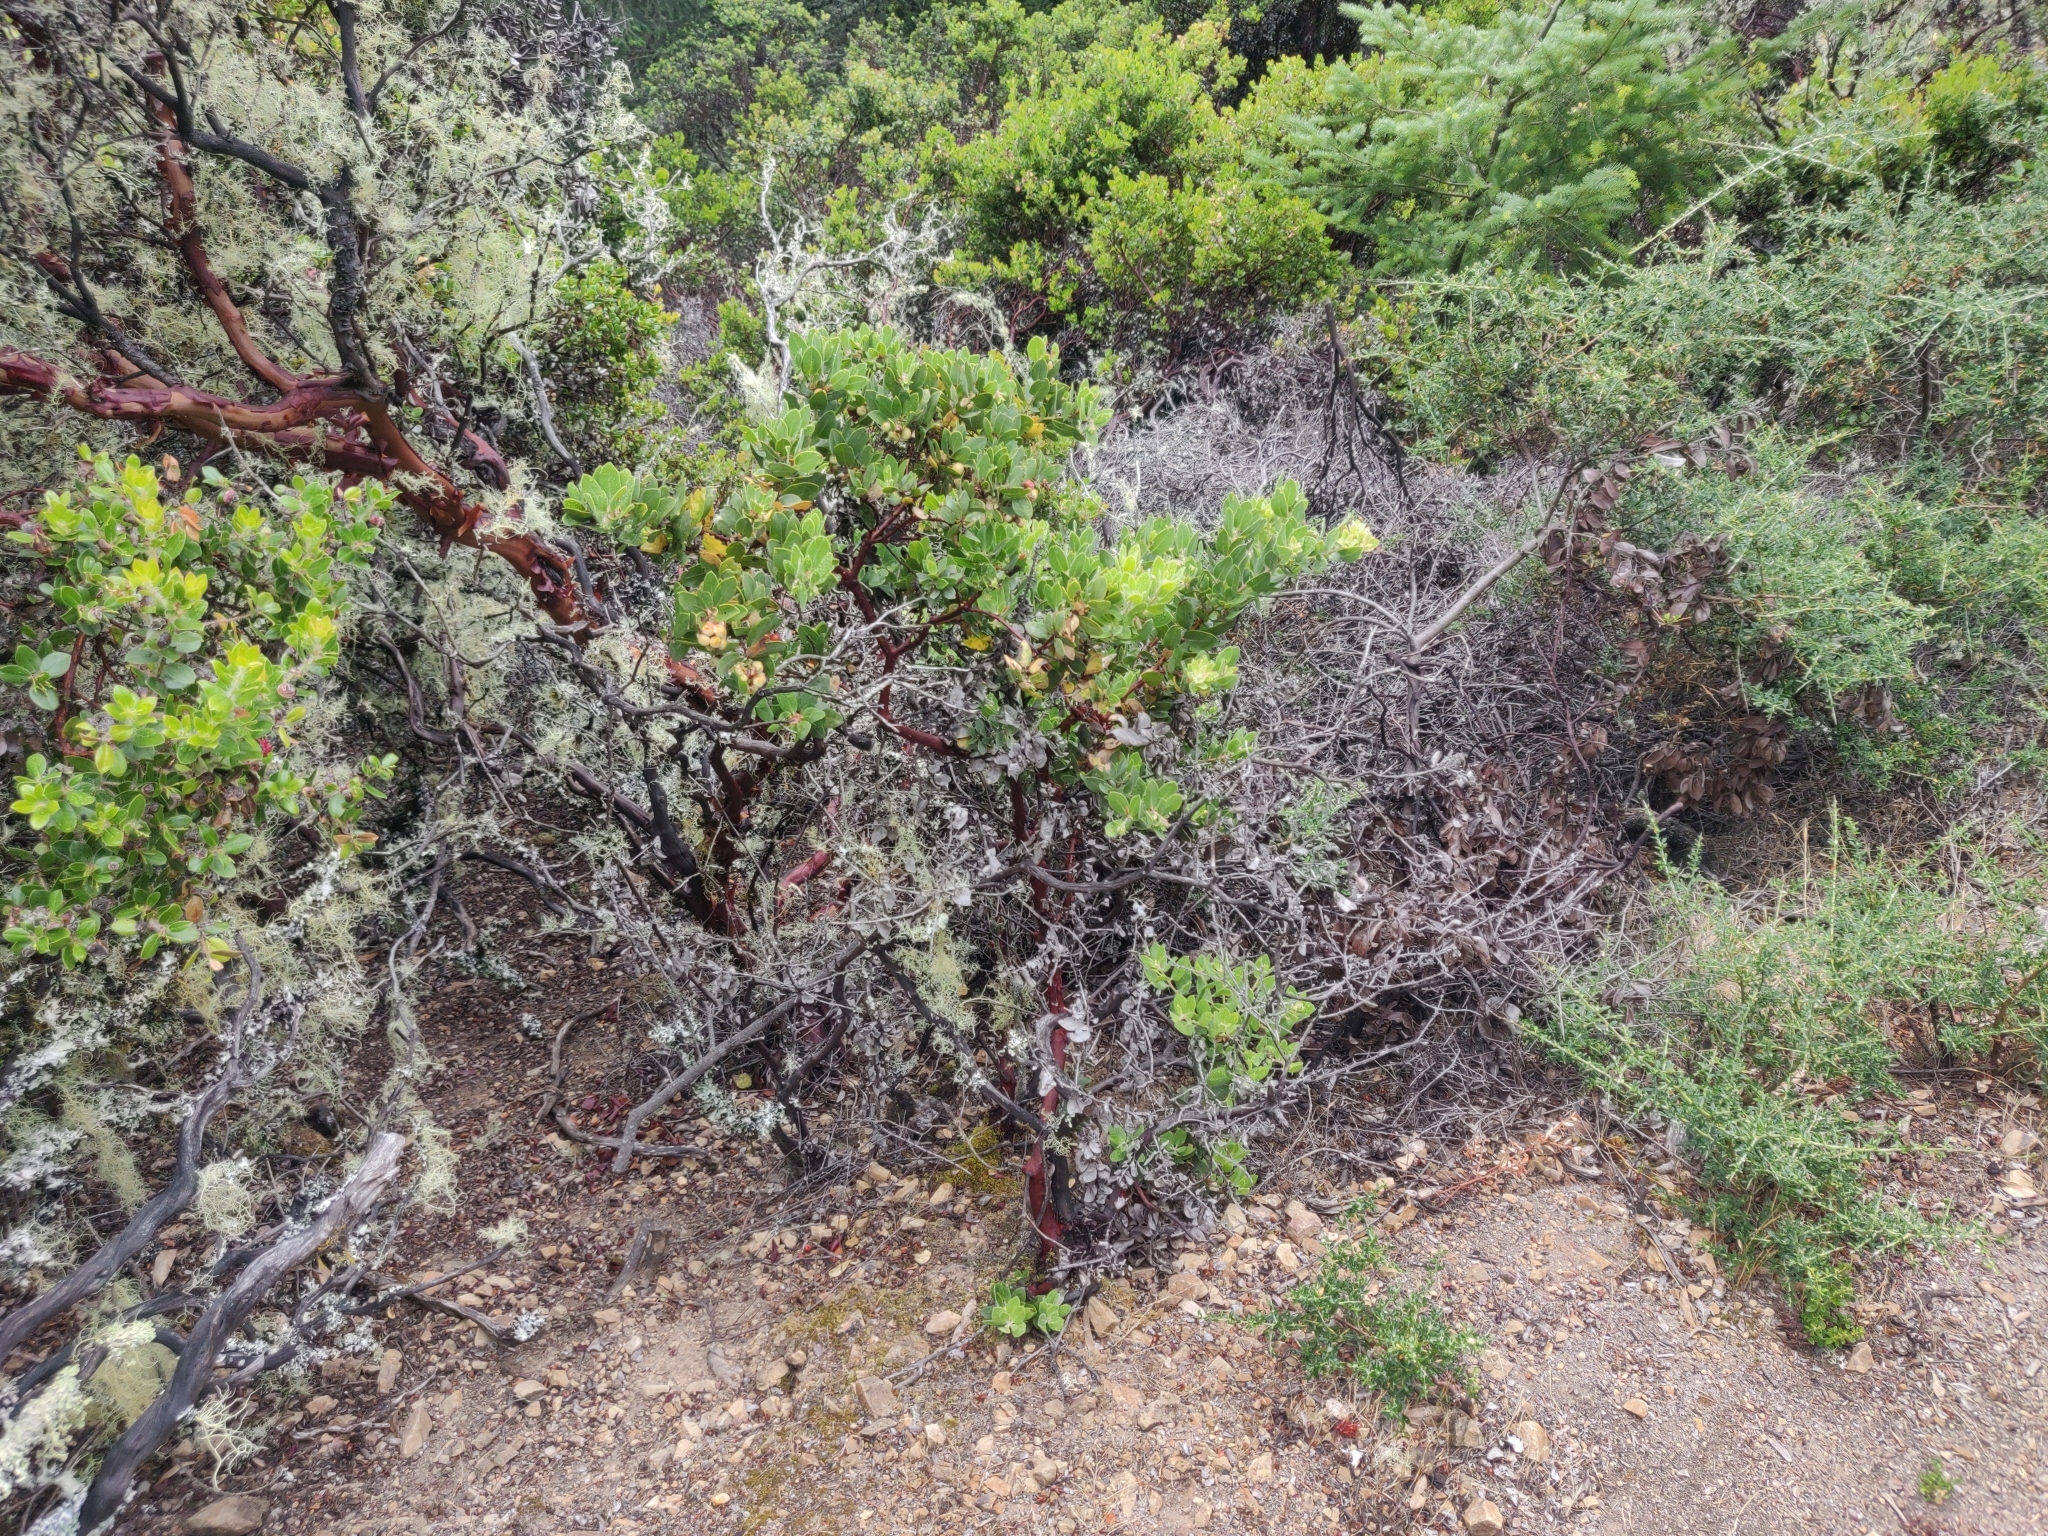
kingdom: Plantae
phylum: Tracheophyta
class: Magnoliopsida
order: Ericales
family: Ericaceae
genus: Arctostaphylos
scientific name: Arctostaphylos glandulosa
